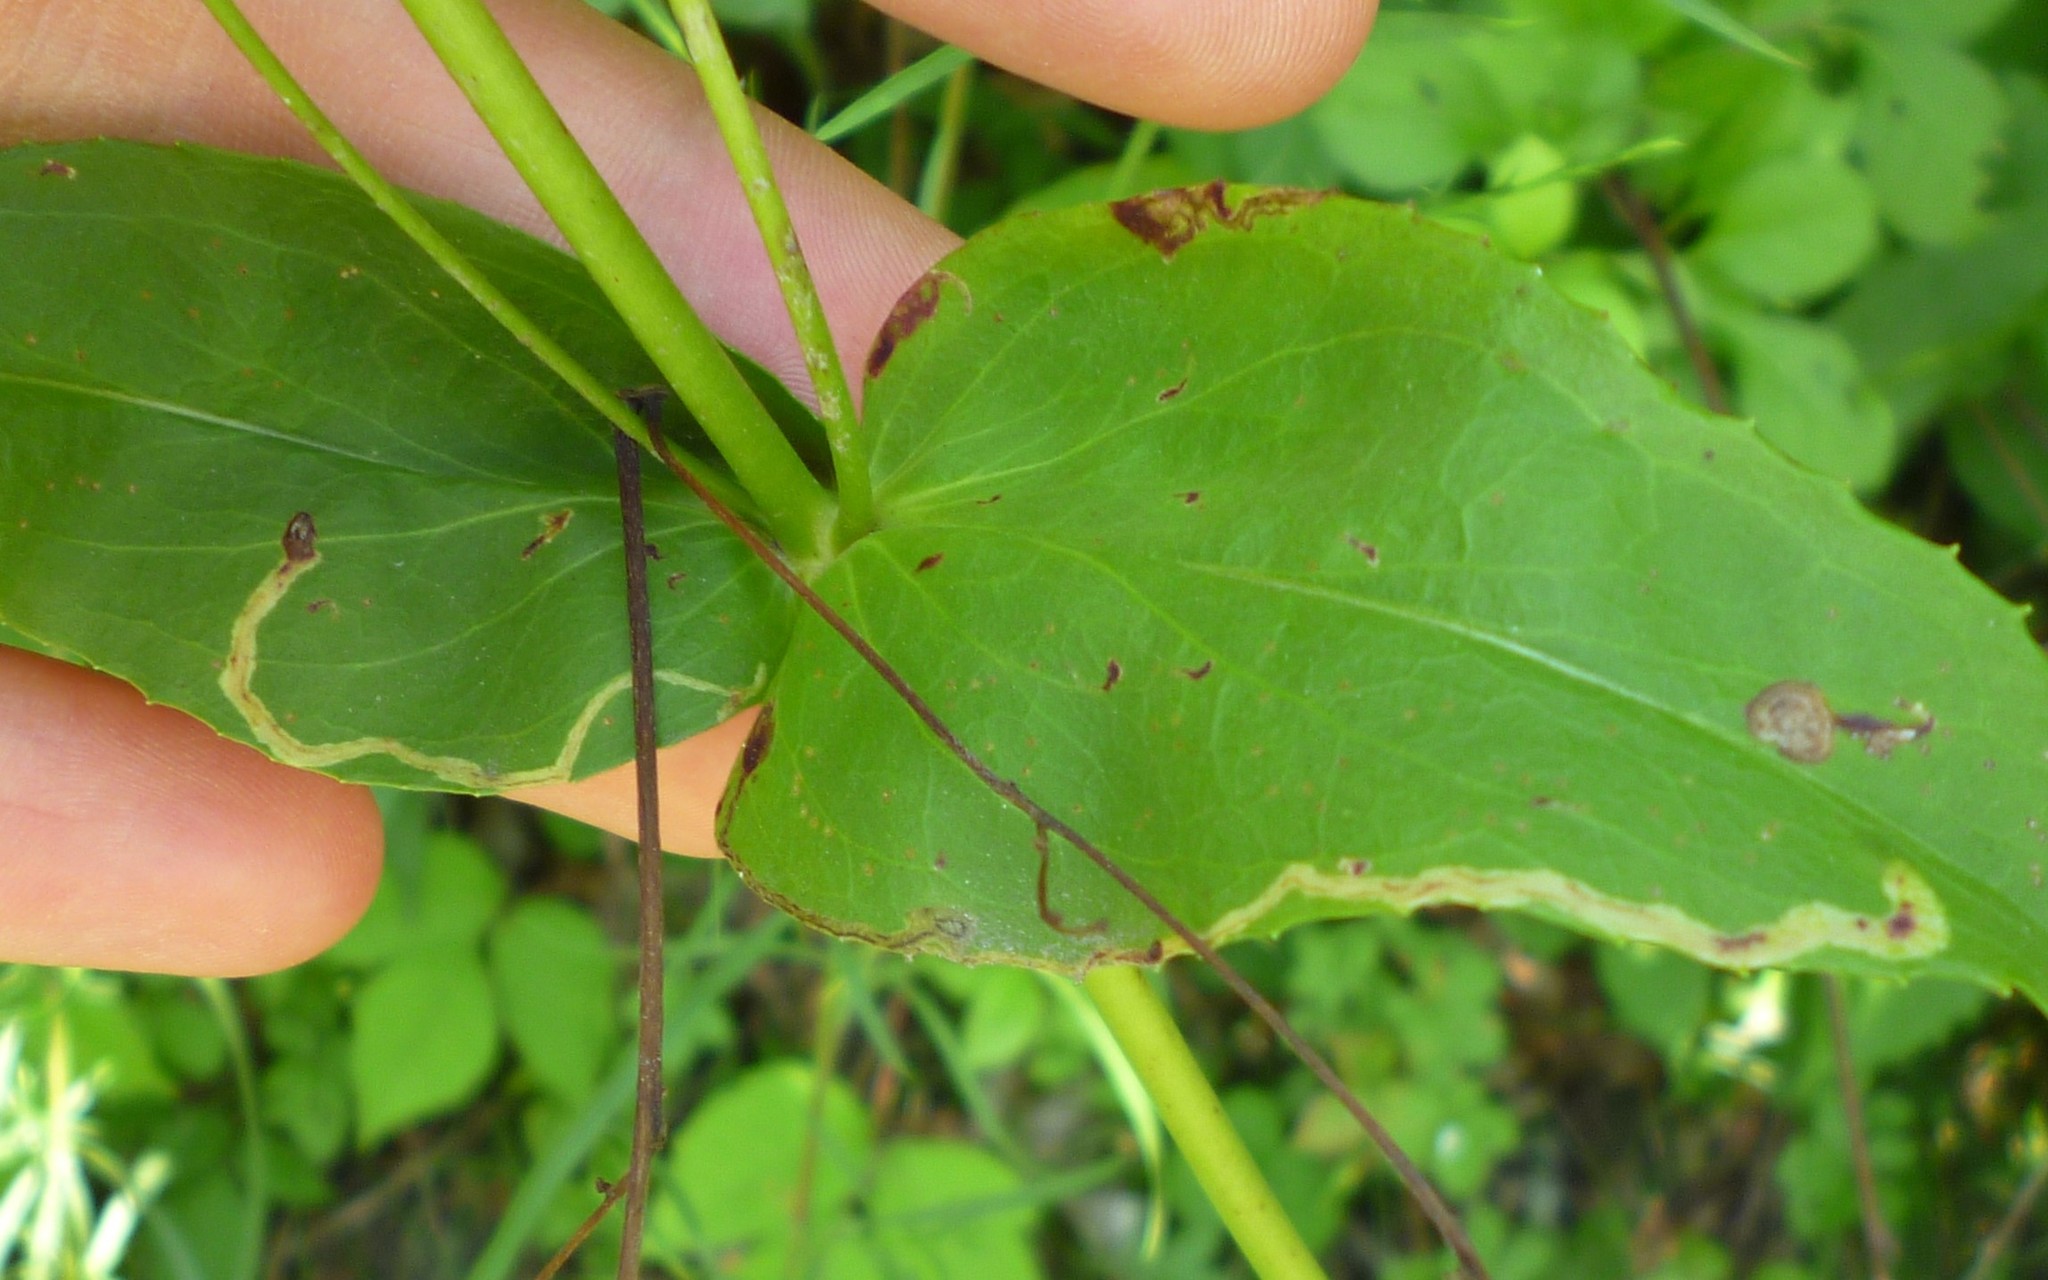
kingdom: Animalia
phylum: Arthropoda
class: Insecta
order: Diptera
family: Agromyzidae
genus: Phytomyza
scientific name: Phytomyza penstemonis
